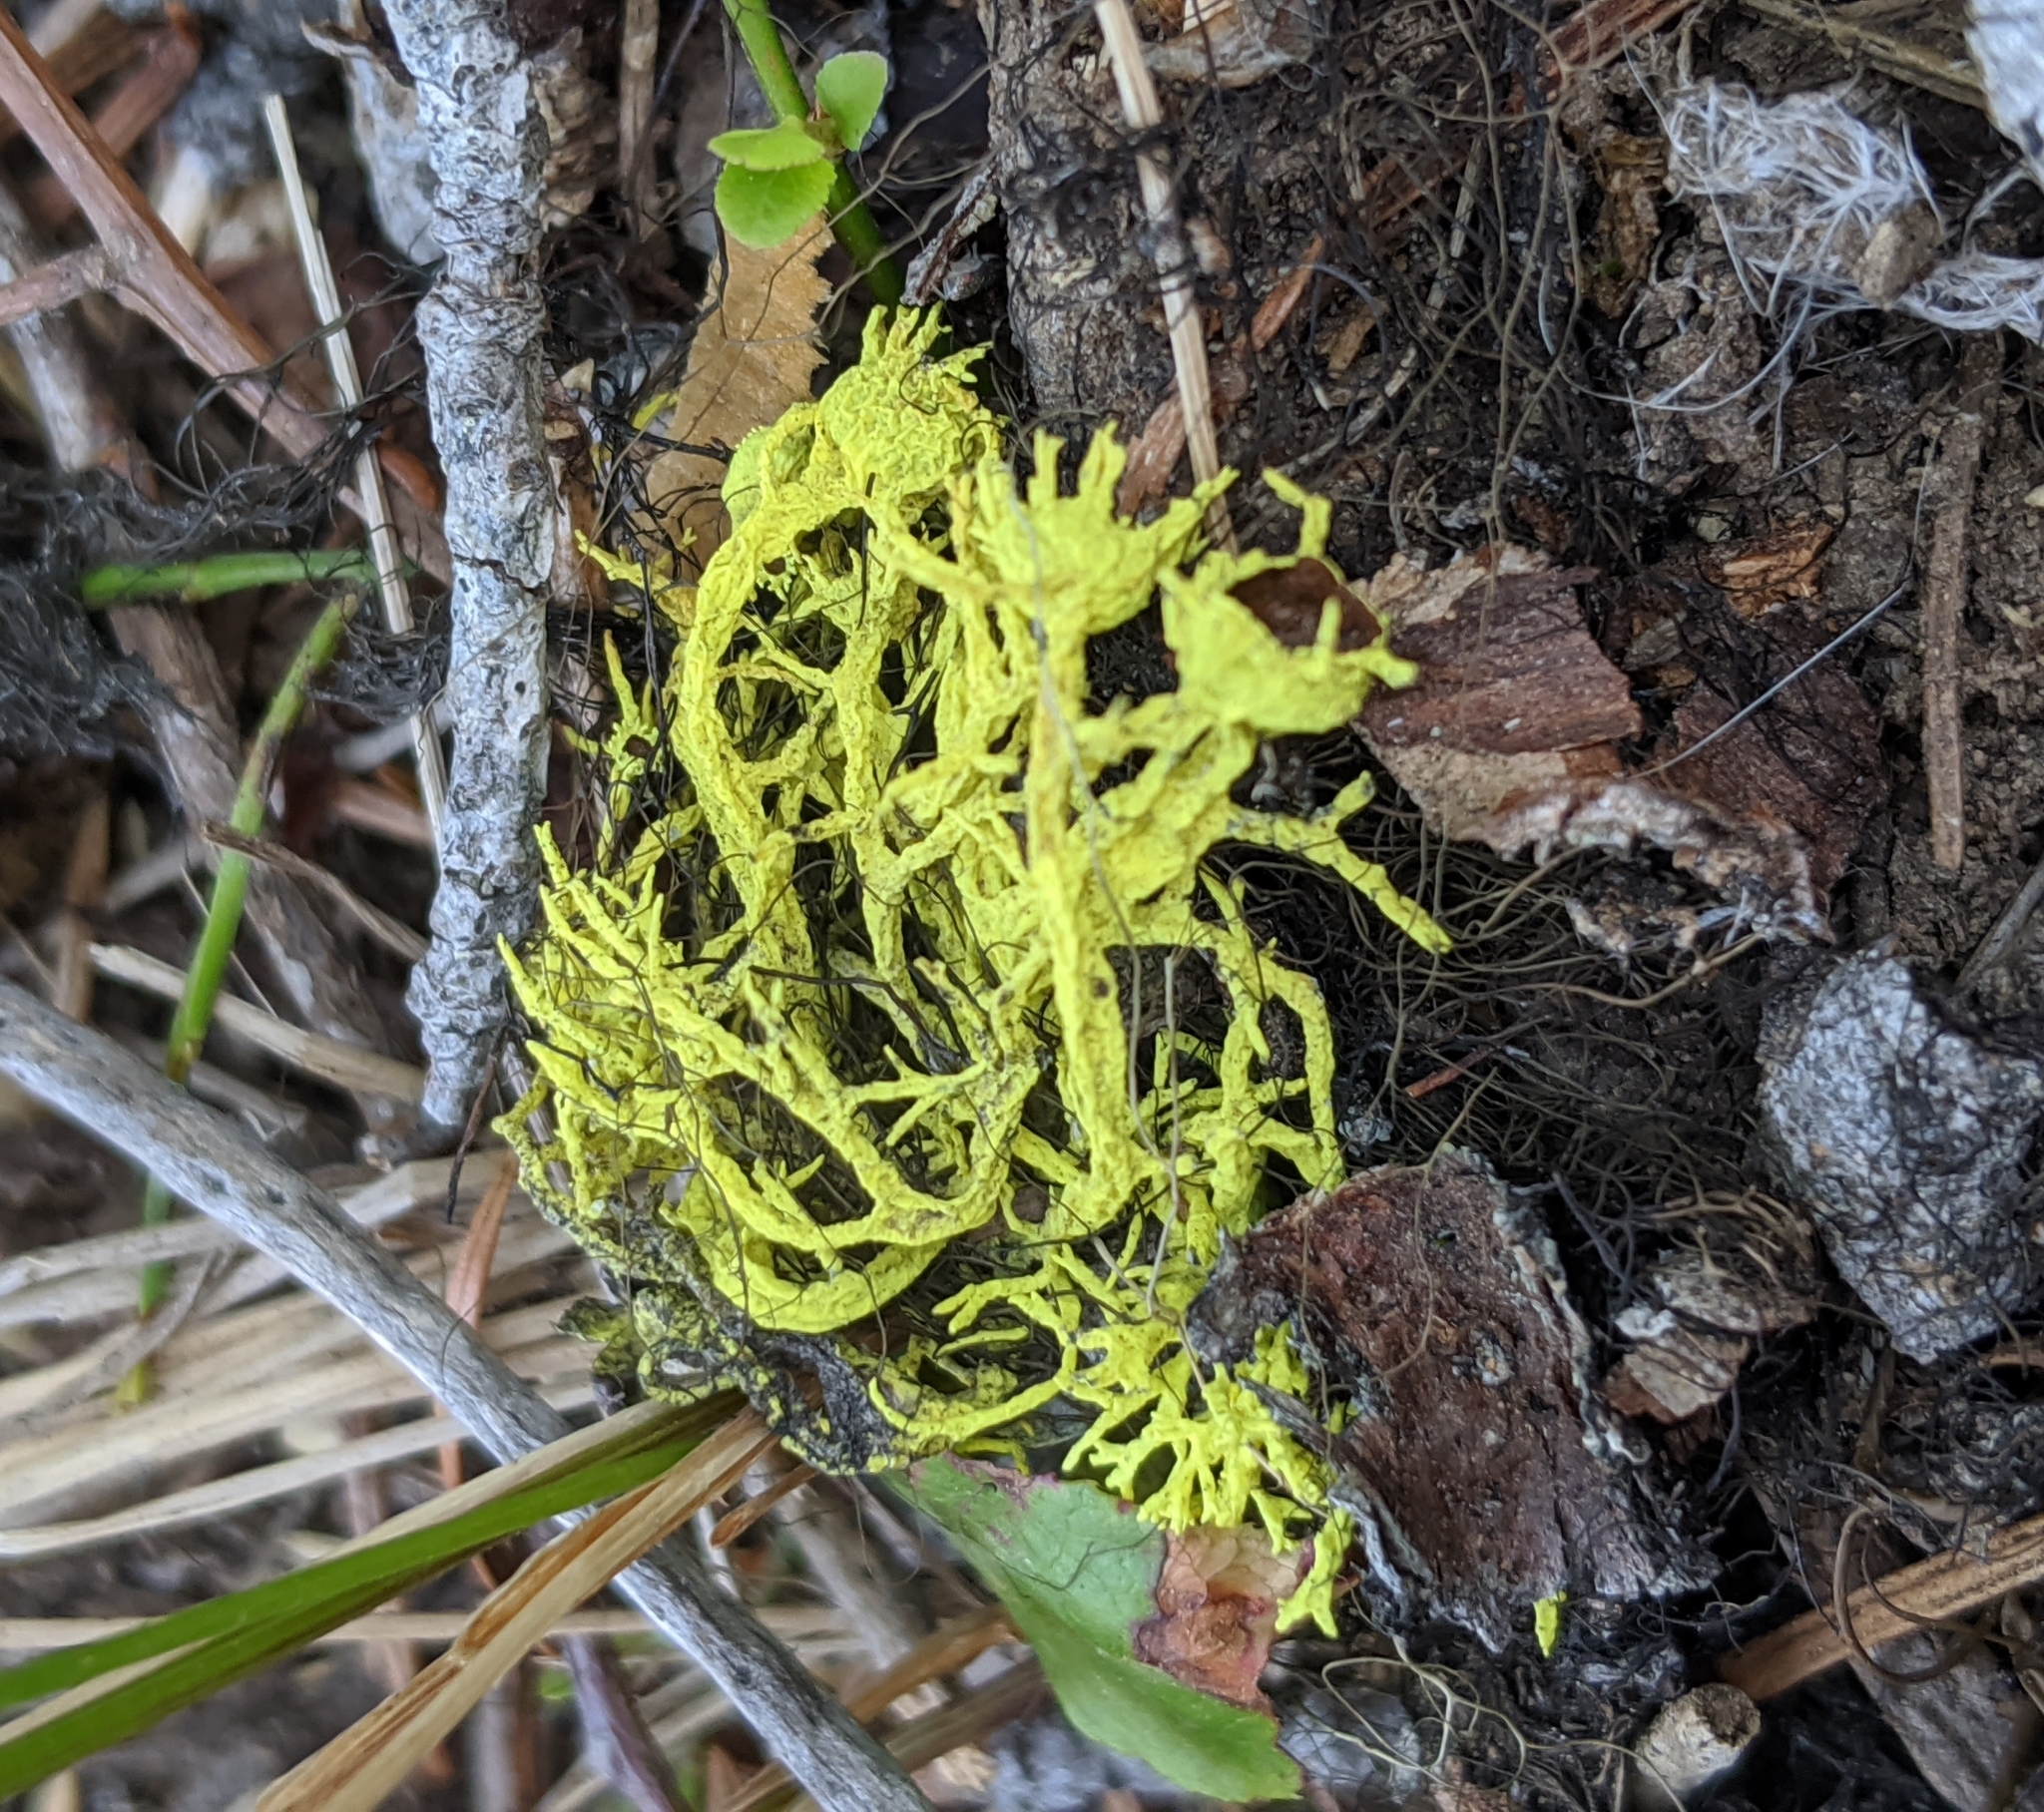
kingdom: Fungi
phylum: Ascomycota
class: Lecanoromycetes
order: Lecanorales
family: Parmeliaceae
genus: Letharia
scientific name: Letharia vulpina
